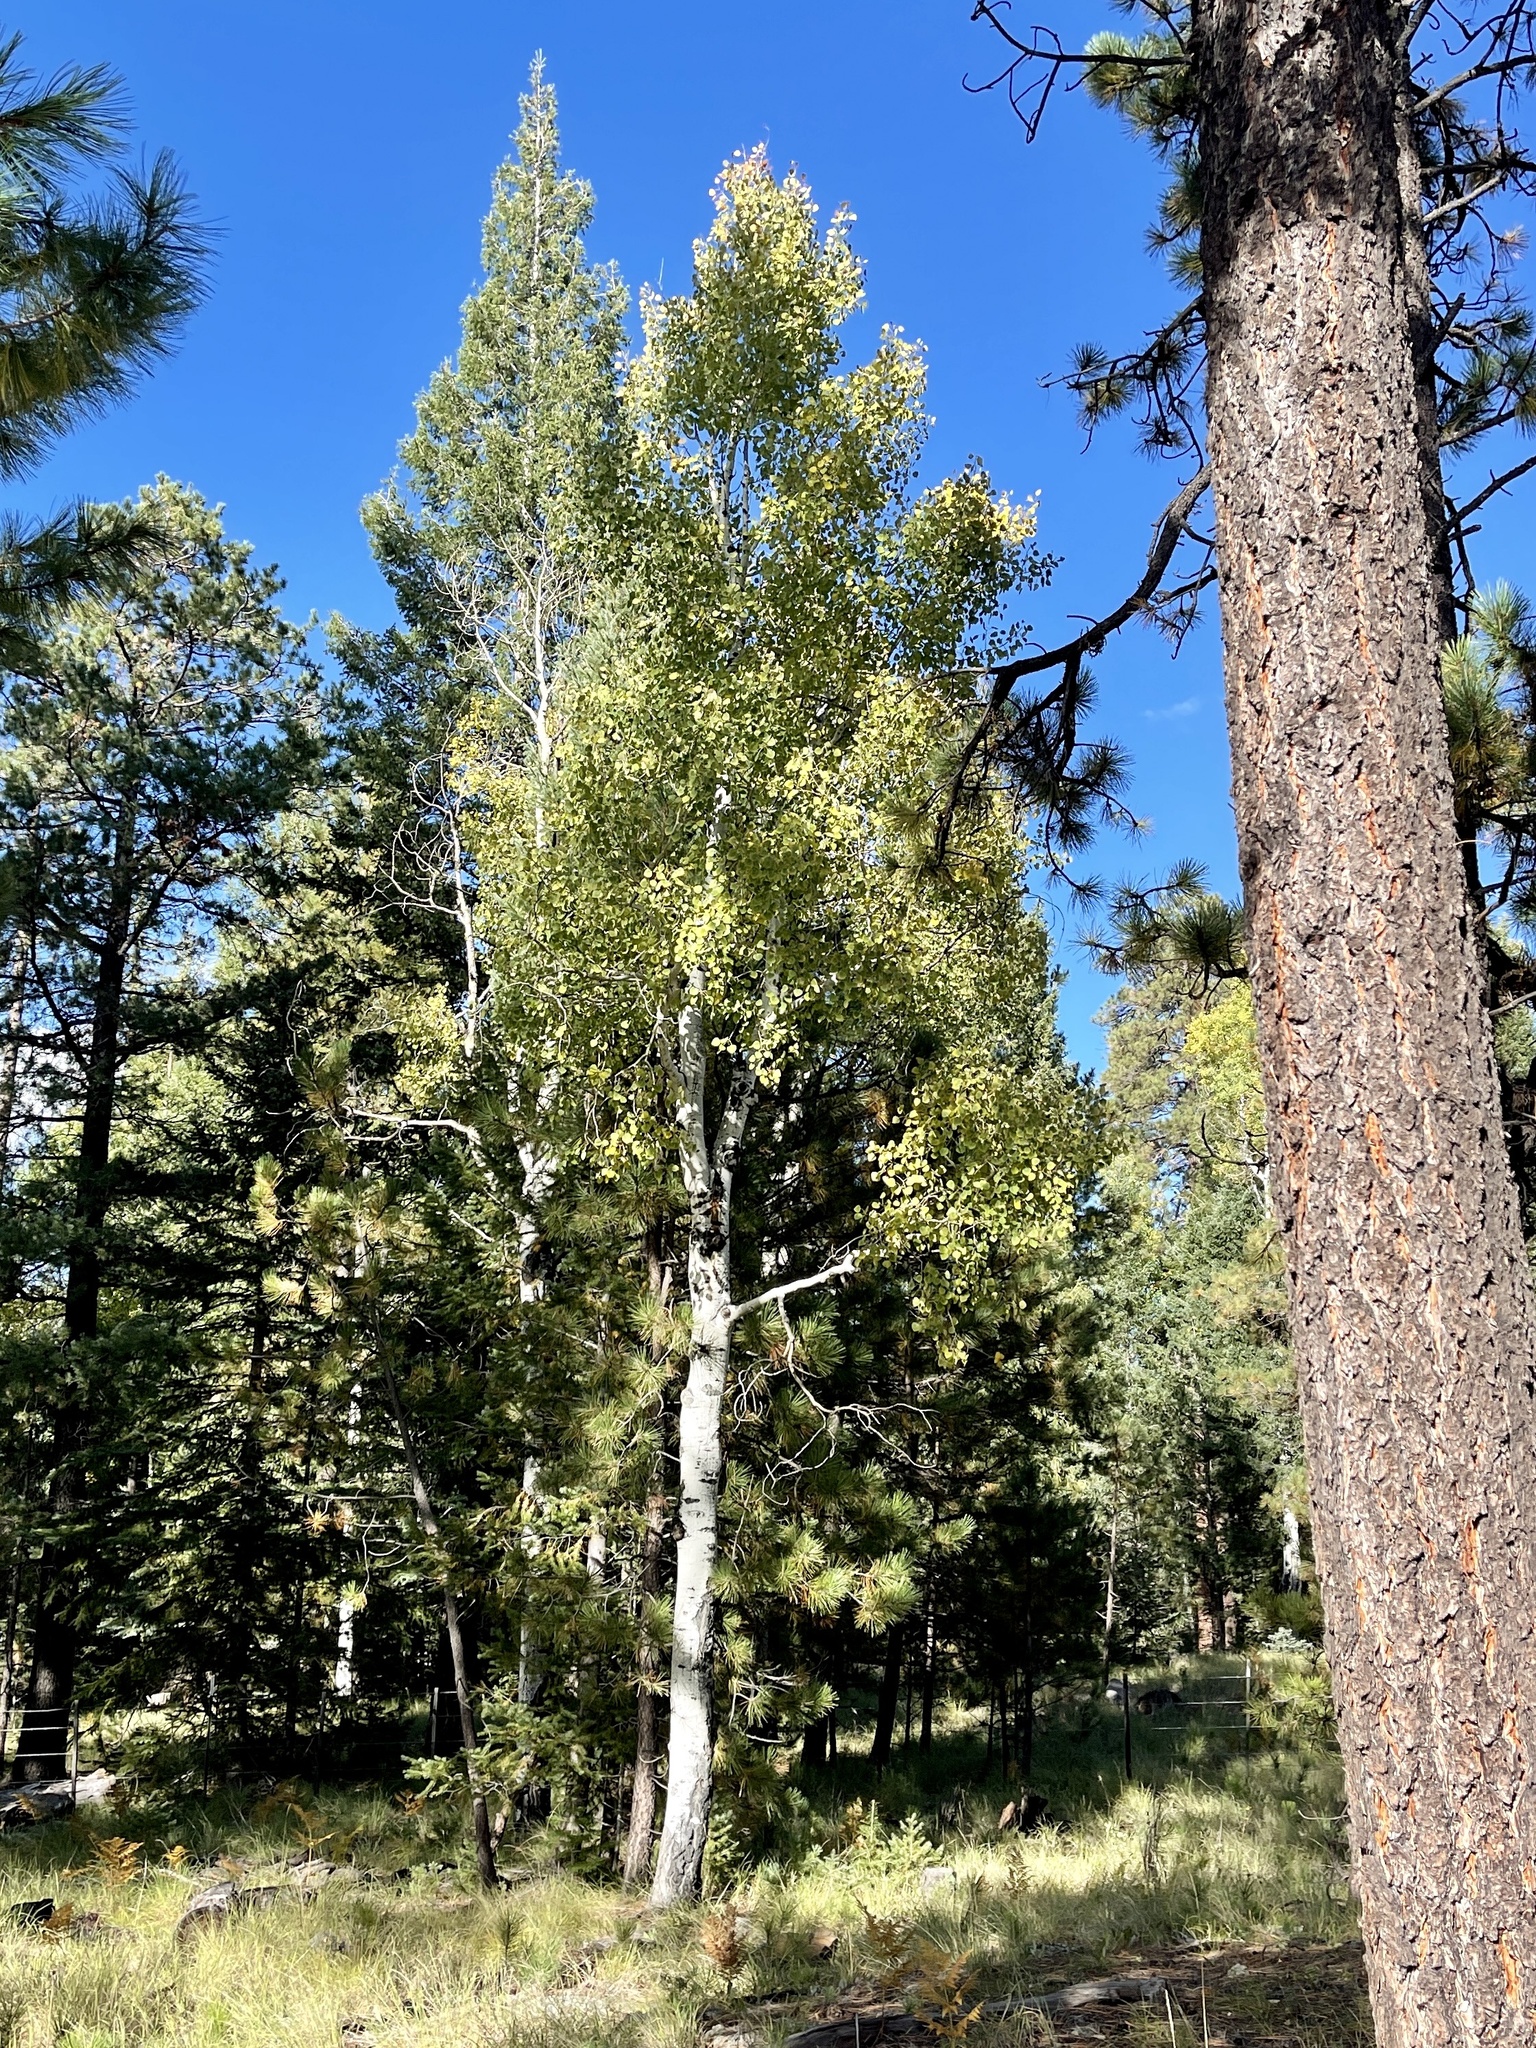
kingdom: Plantae
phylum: Tracheophyta
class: Magnoliopsida
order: Malpighiales
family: Salicaceae
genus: Populus
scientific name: Populus tremuloides
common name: Quaking aspen
